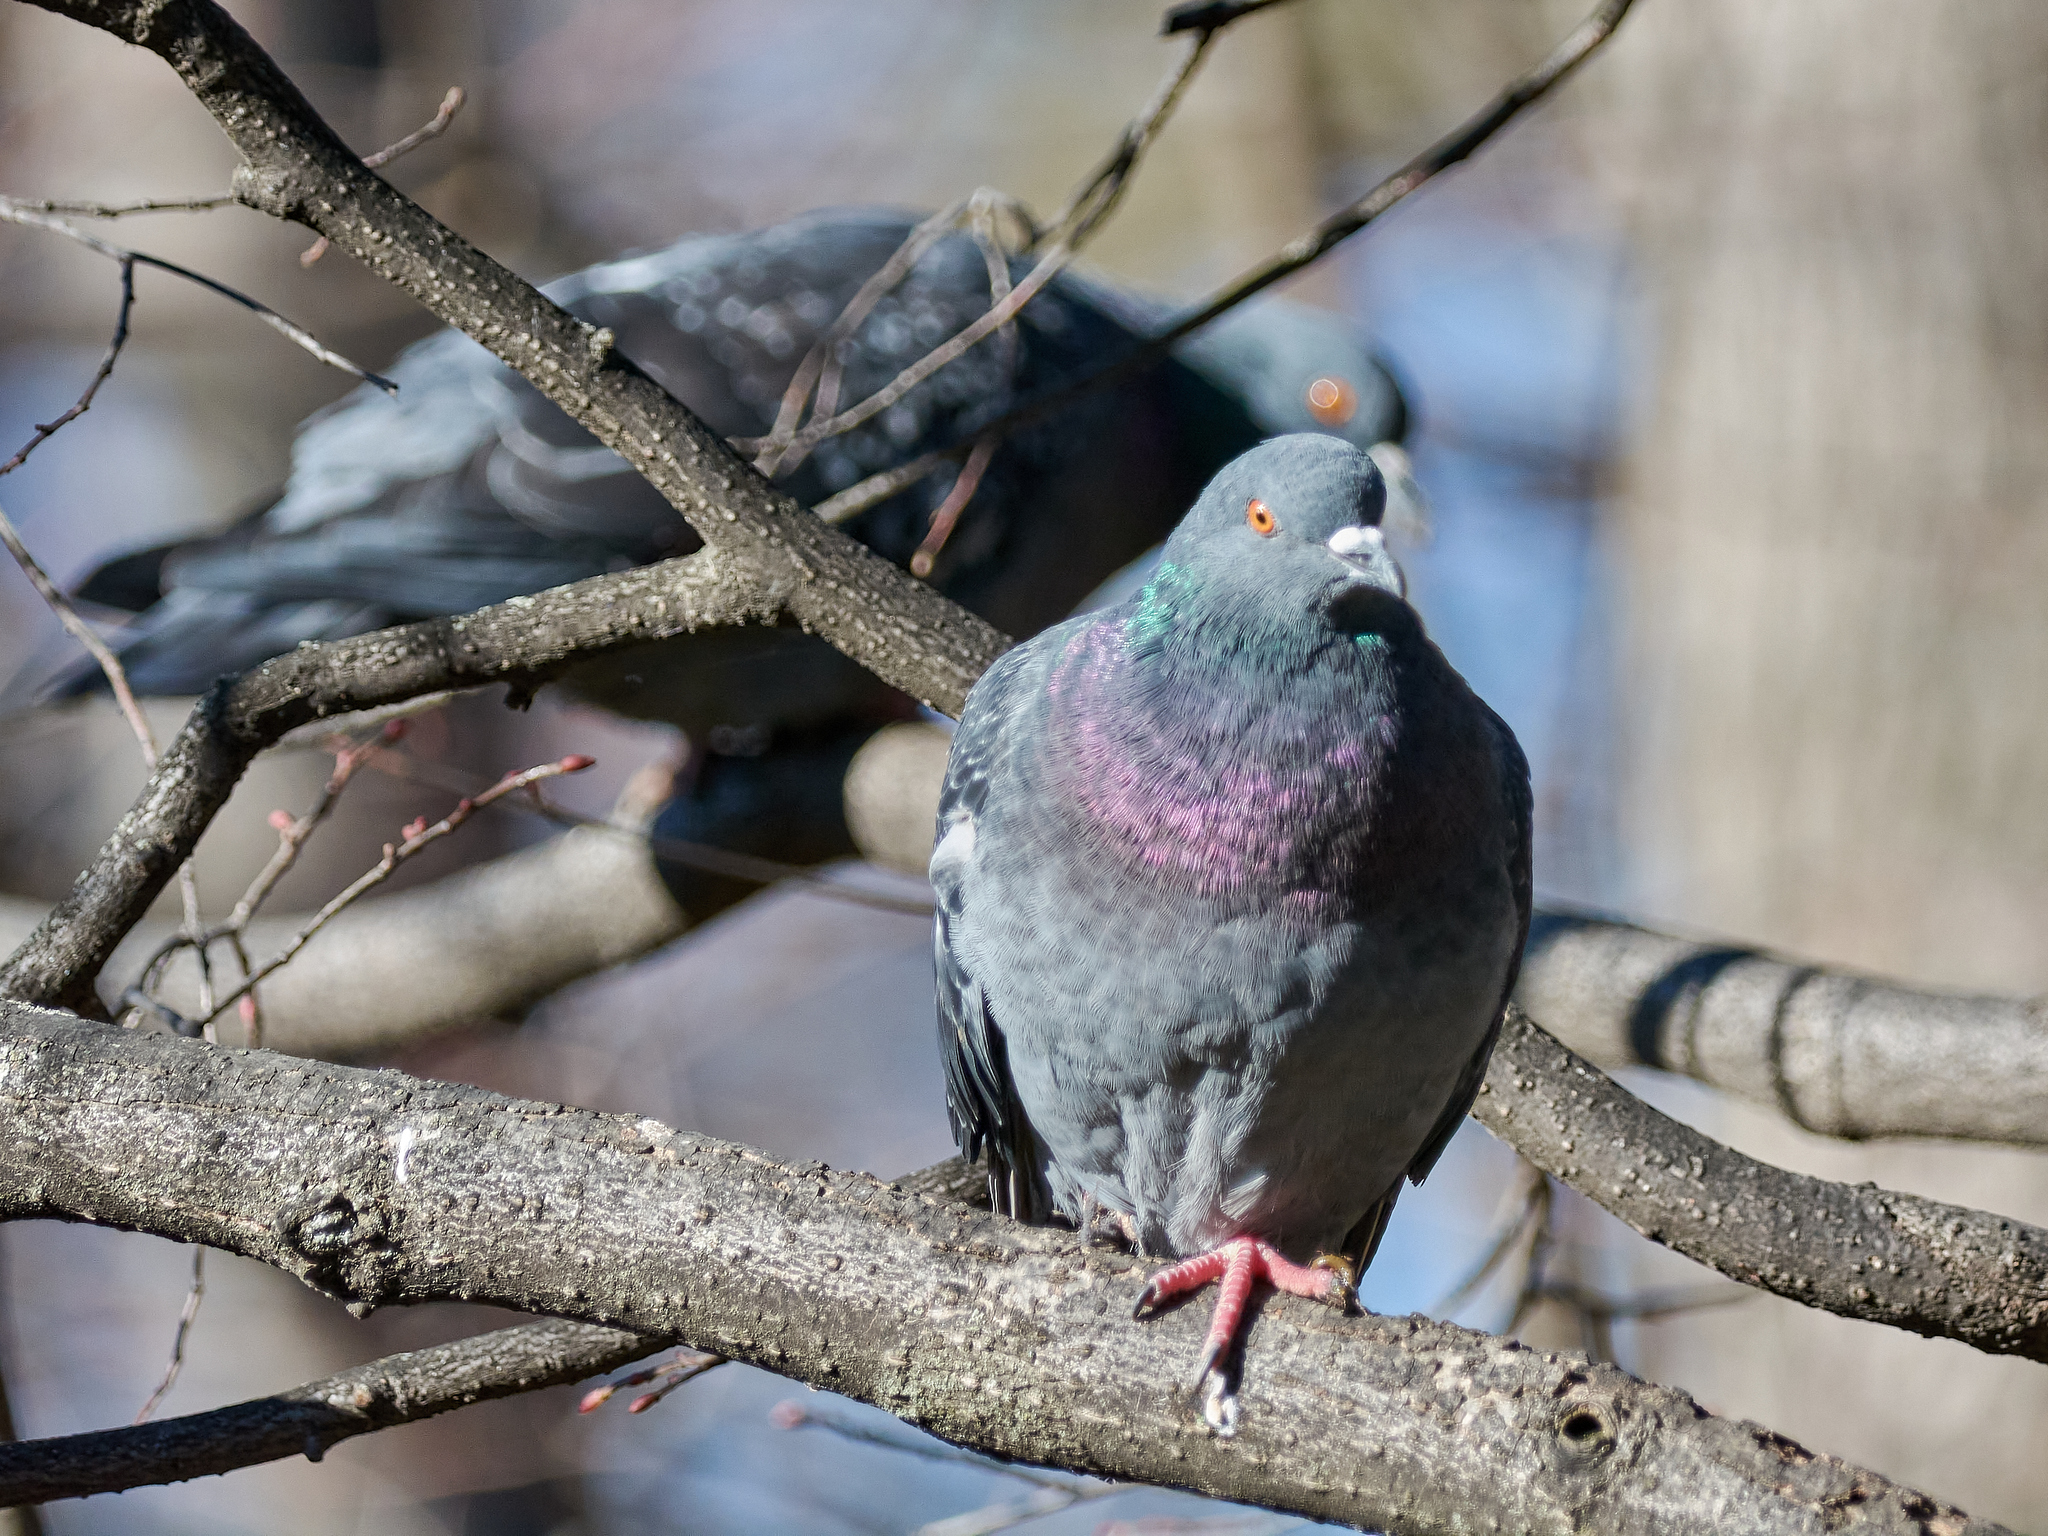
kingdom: Animalia
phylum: Chordata
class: Aves
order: Columbiformes
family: Columbidae
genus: Columba
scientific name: Columba livia
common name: Rock pigeon
